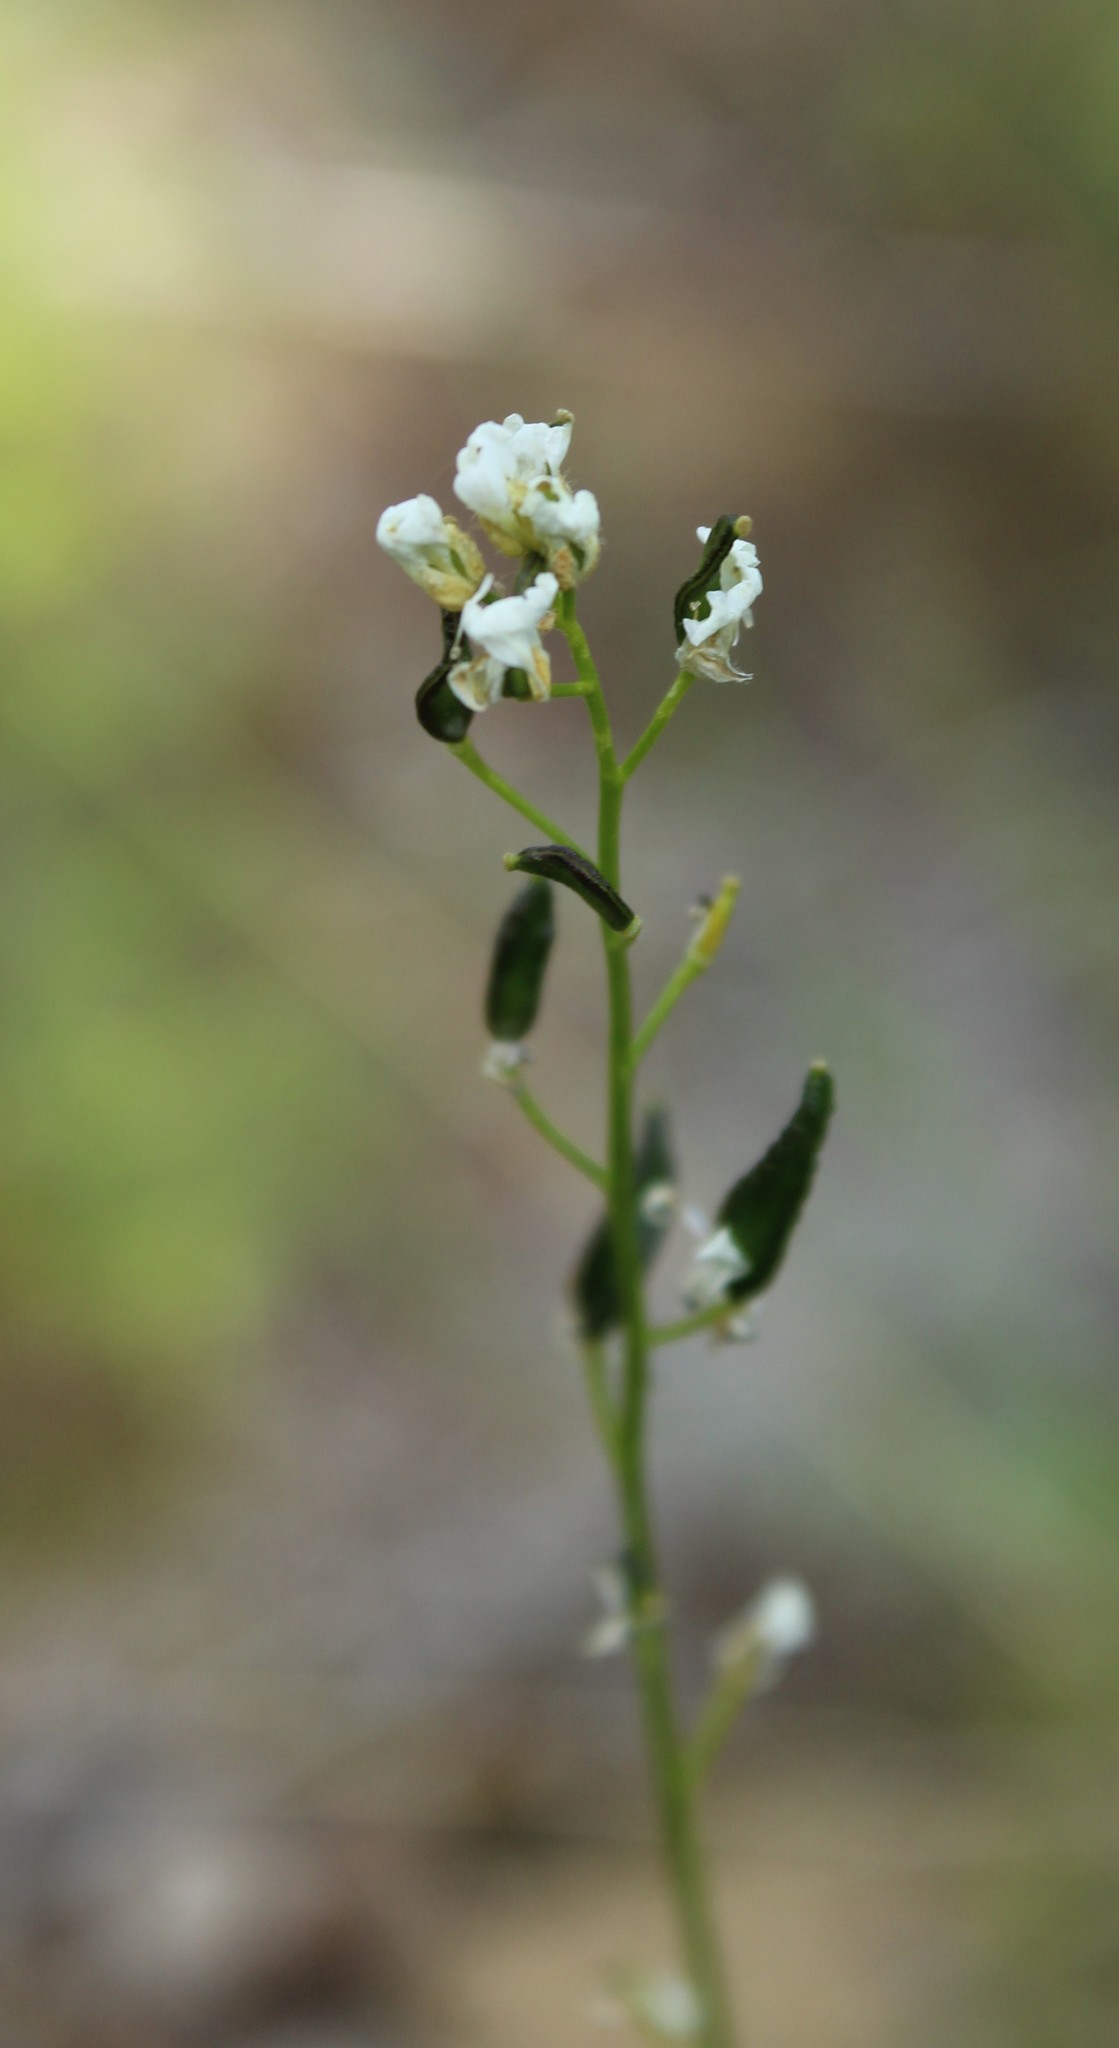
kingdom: Plantae
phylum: Tracheophyta
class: Magnoliopsida
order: Brassicales
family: Brassicaceae
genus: Draba
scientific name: Draba hirta
